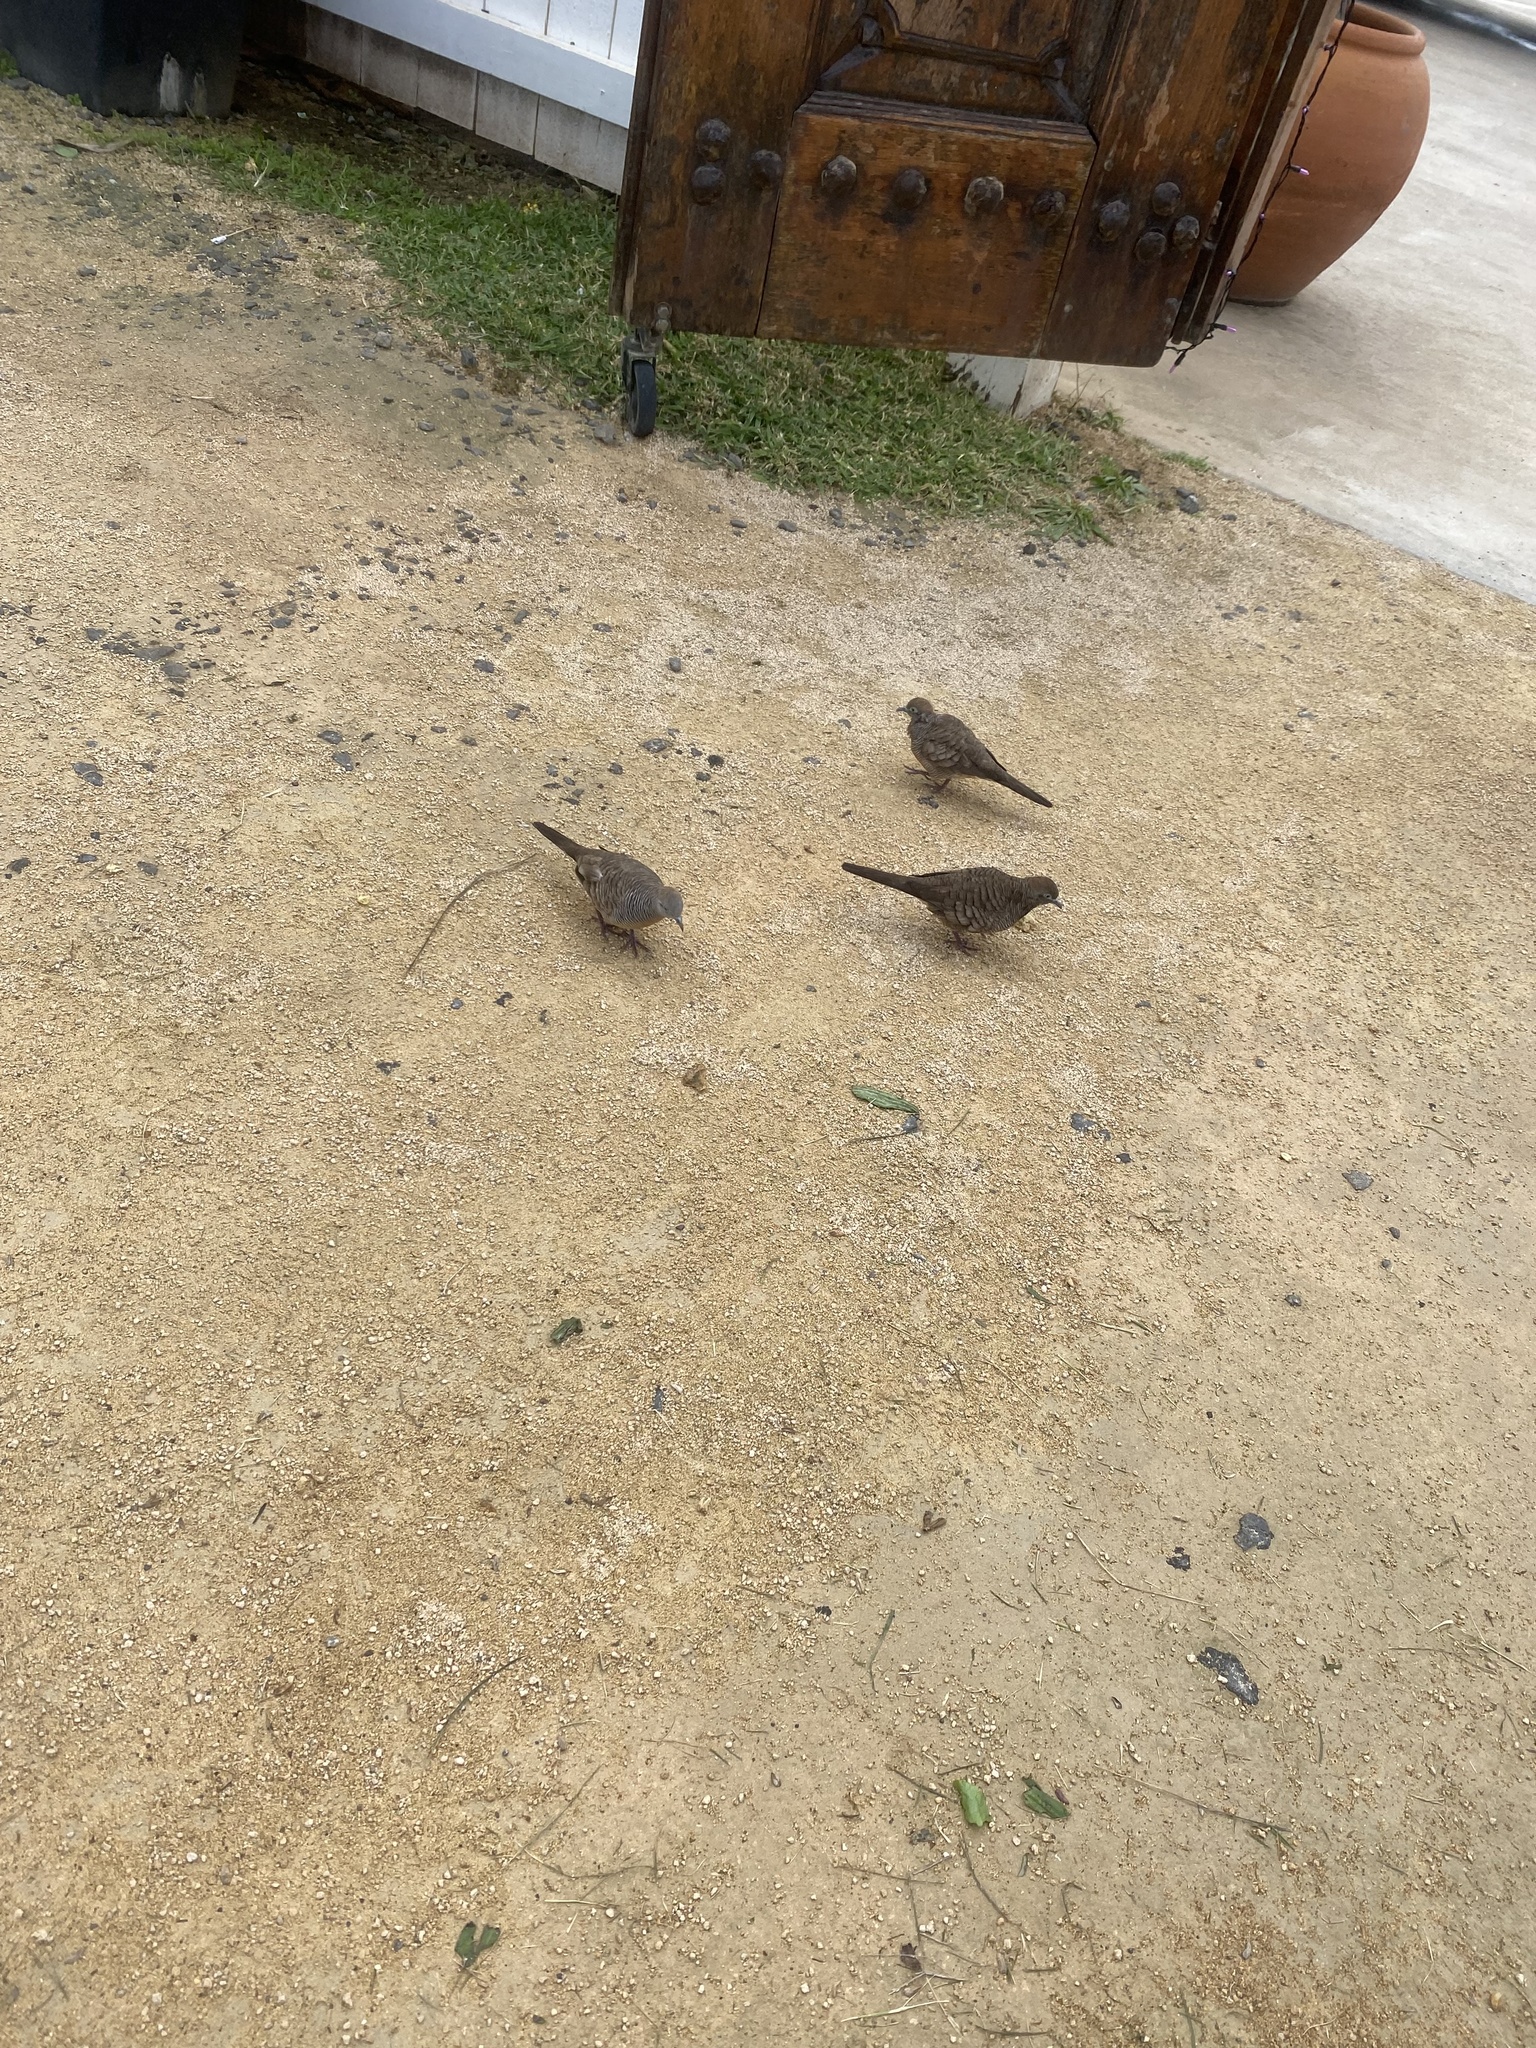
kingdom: Animalia
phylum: Chordata
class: Aves
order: Columbiformes
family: Columbidae
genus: Geopelia
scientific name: Geopelia striata
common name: Zebra dove
